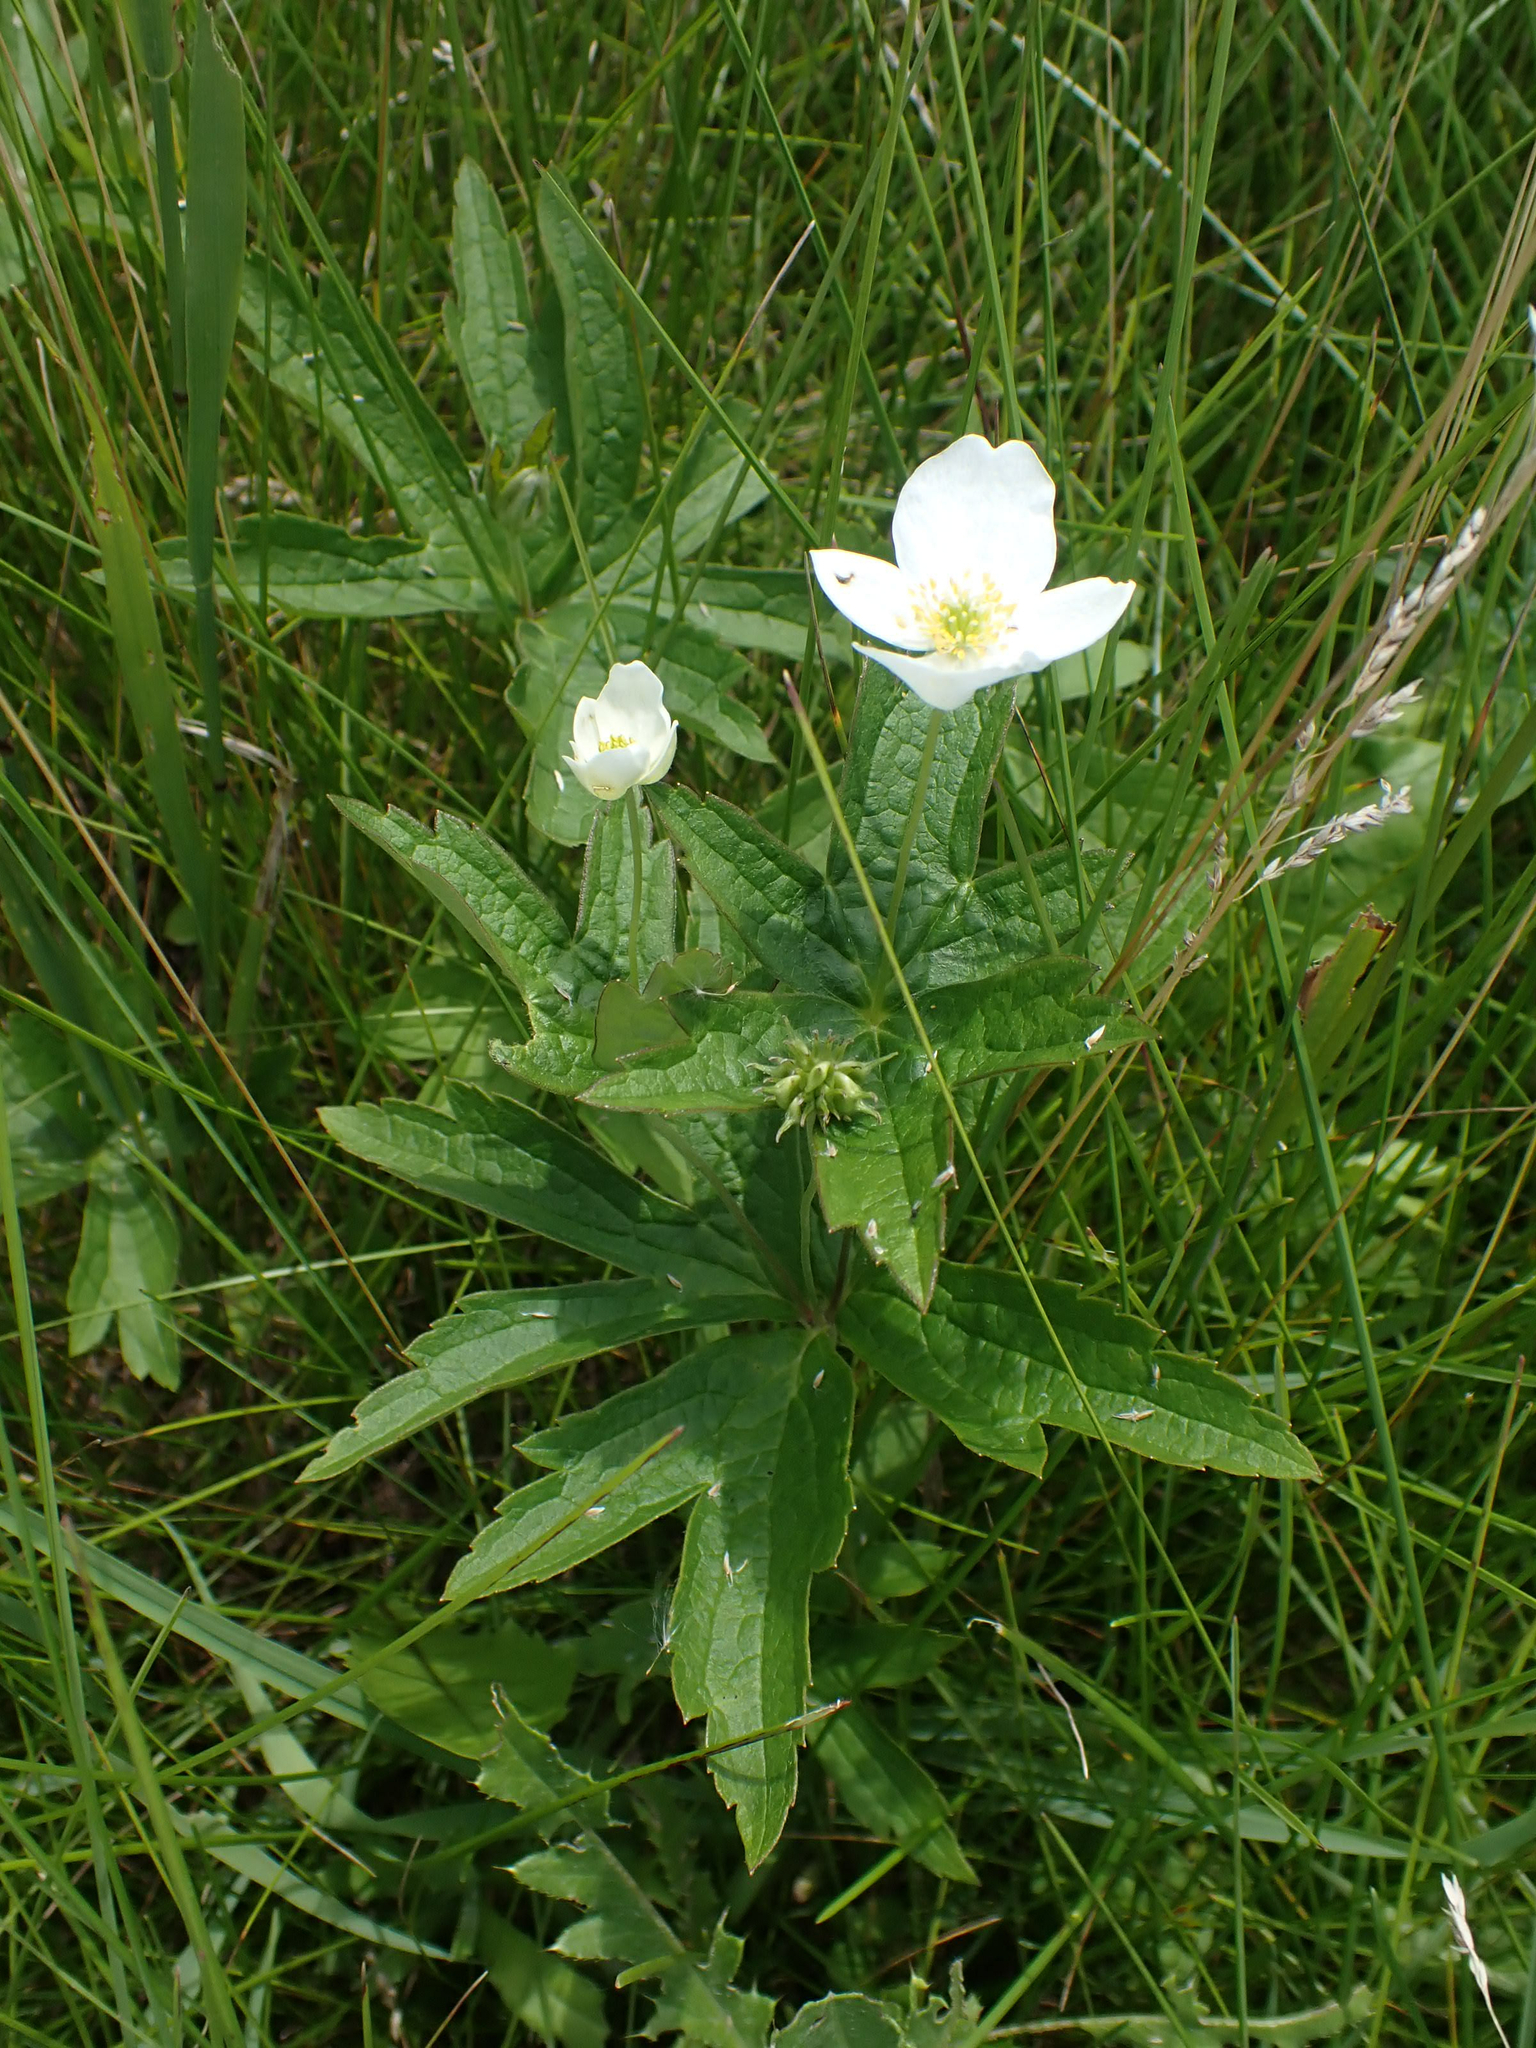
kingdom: Plantae
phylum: Tracheophyta
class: Magnoliopsida
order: Ranunculales
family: Ranunculaceae
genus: Anemonastrum
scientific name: Anemonastrum canadense
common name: Canada anemone
